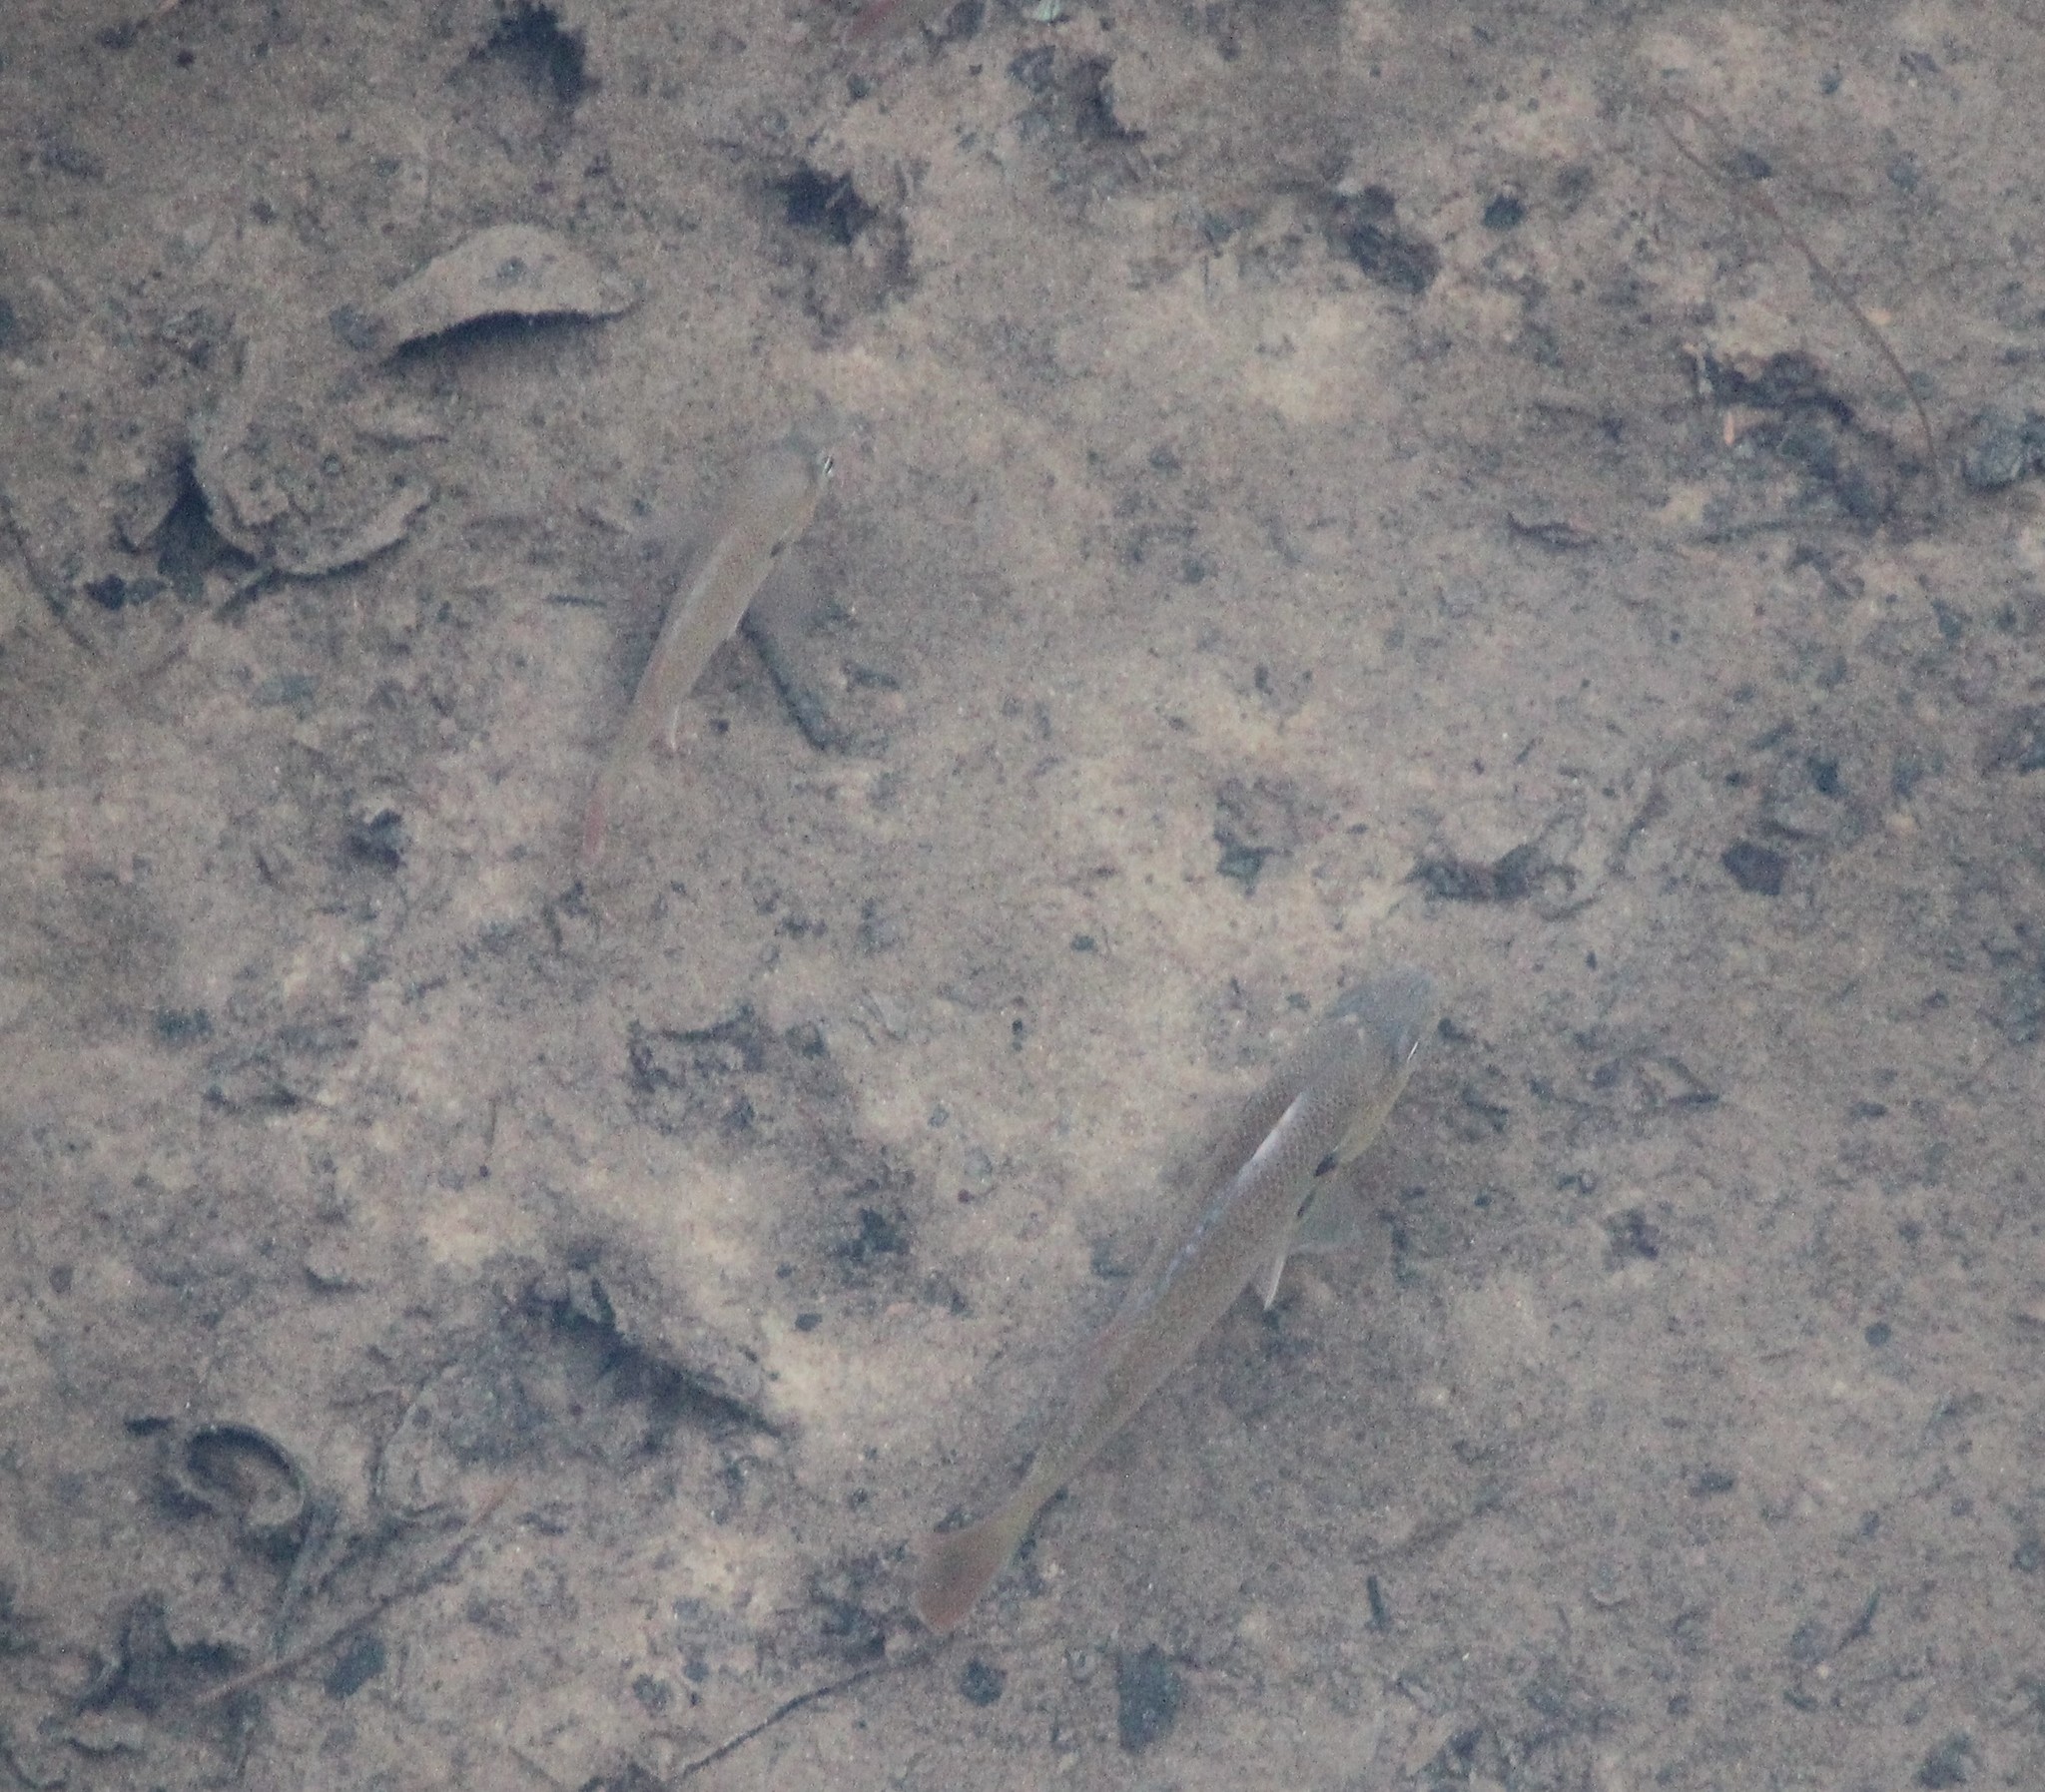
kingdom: Animalia
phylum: Chordata
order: Perciformes
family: Centrarchidae
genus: Lepomis
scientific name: Lepomis auritus
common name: Redbreast sunfish
